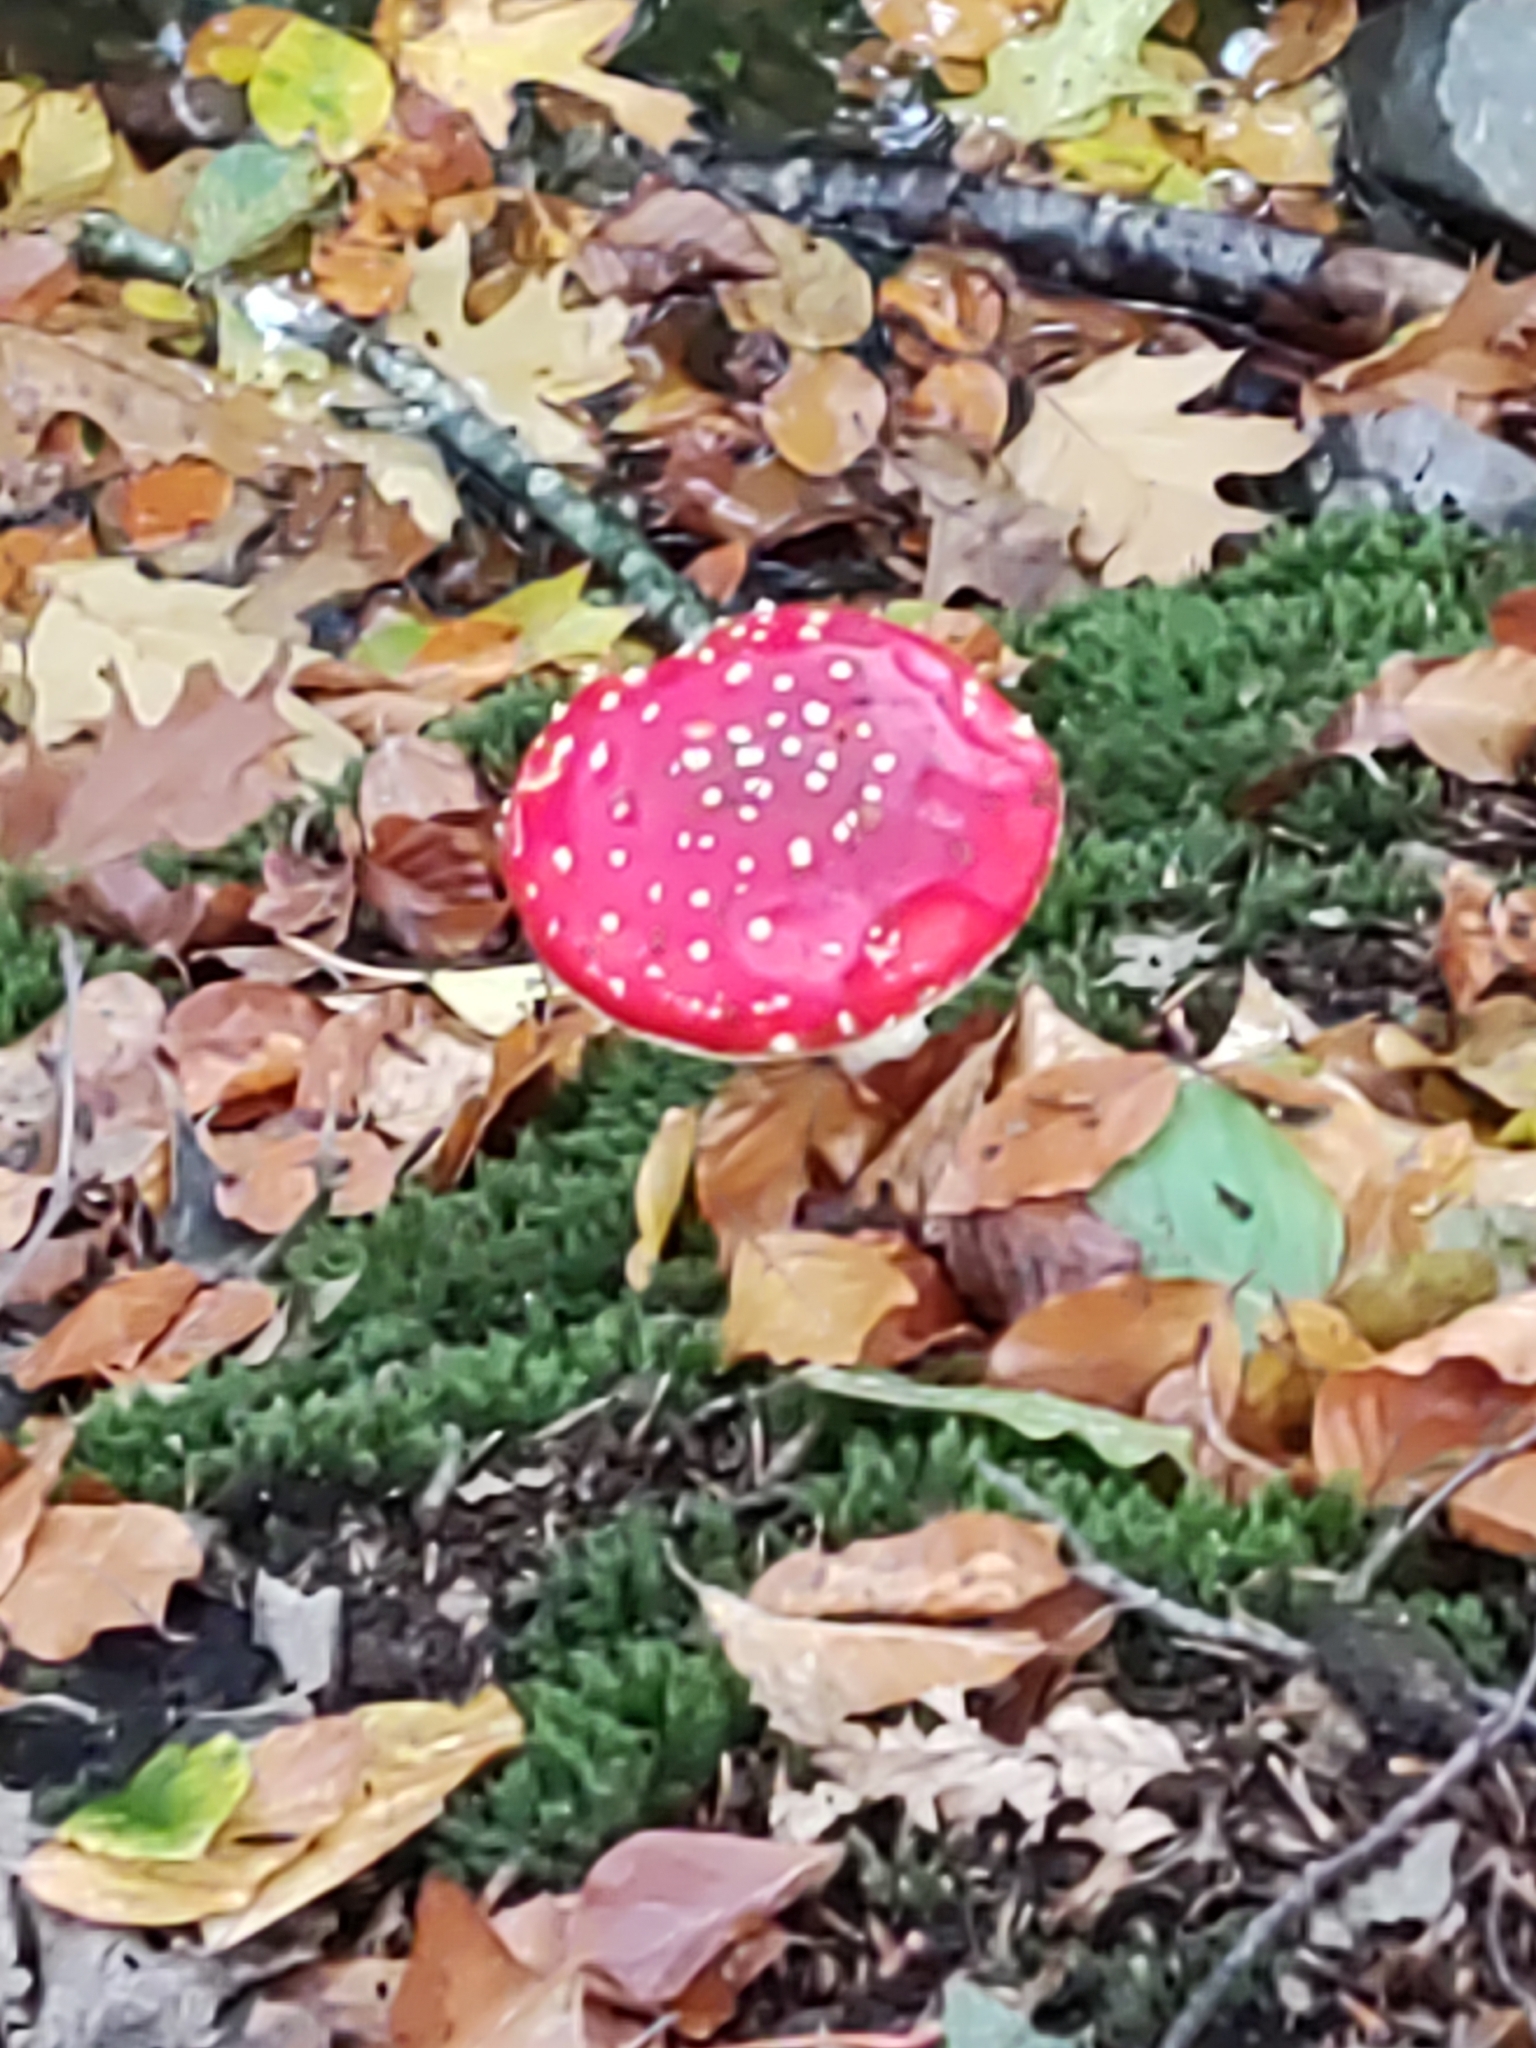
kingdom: Fungi
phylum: Basidiomycota
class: Agaricomycetes
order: Agaricales
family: Amanitaceae
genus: Amanita
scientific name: Amanita muscaria
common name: Fly agaric
